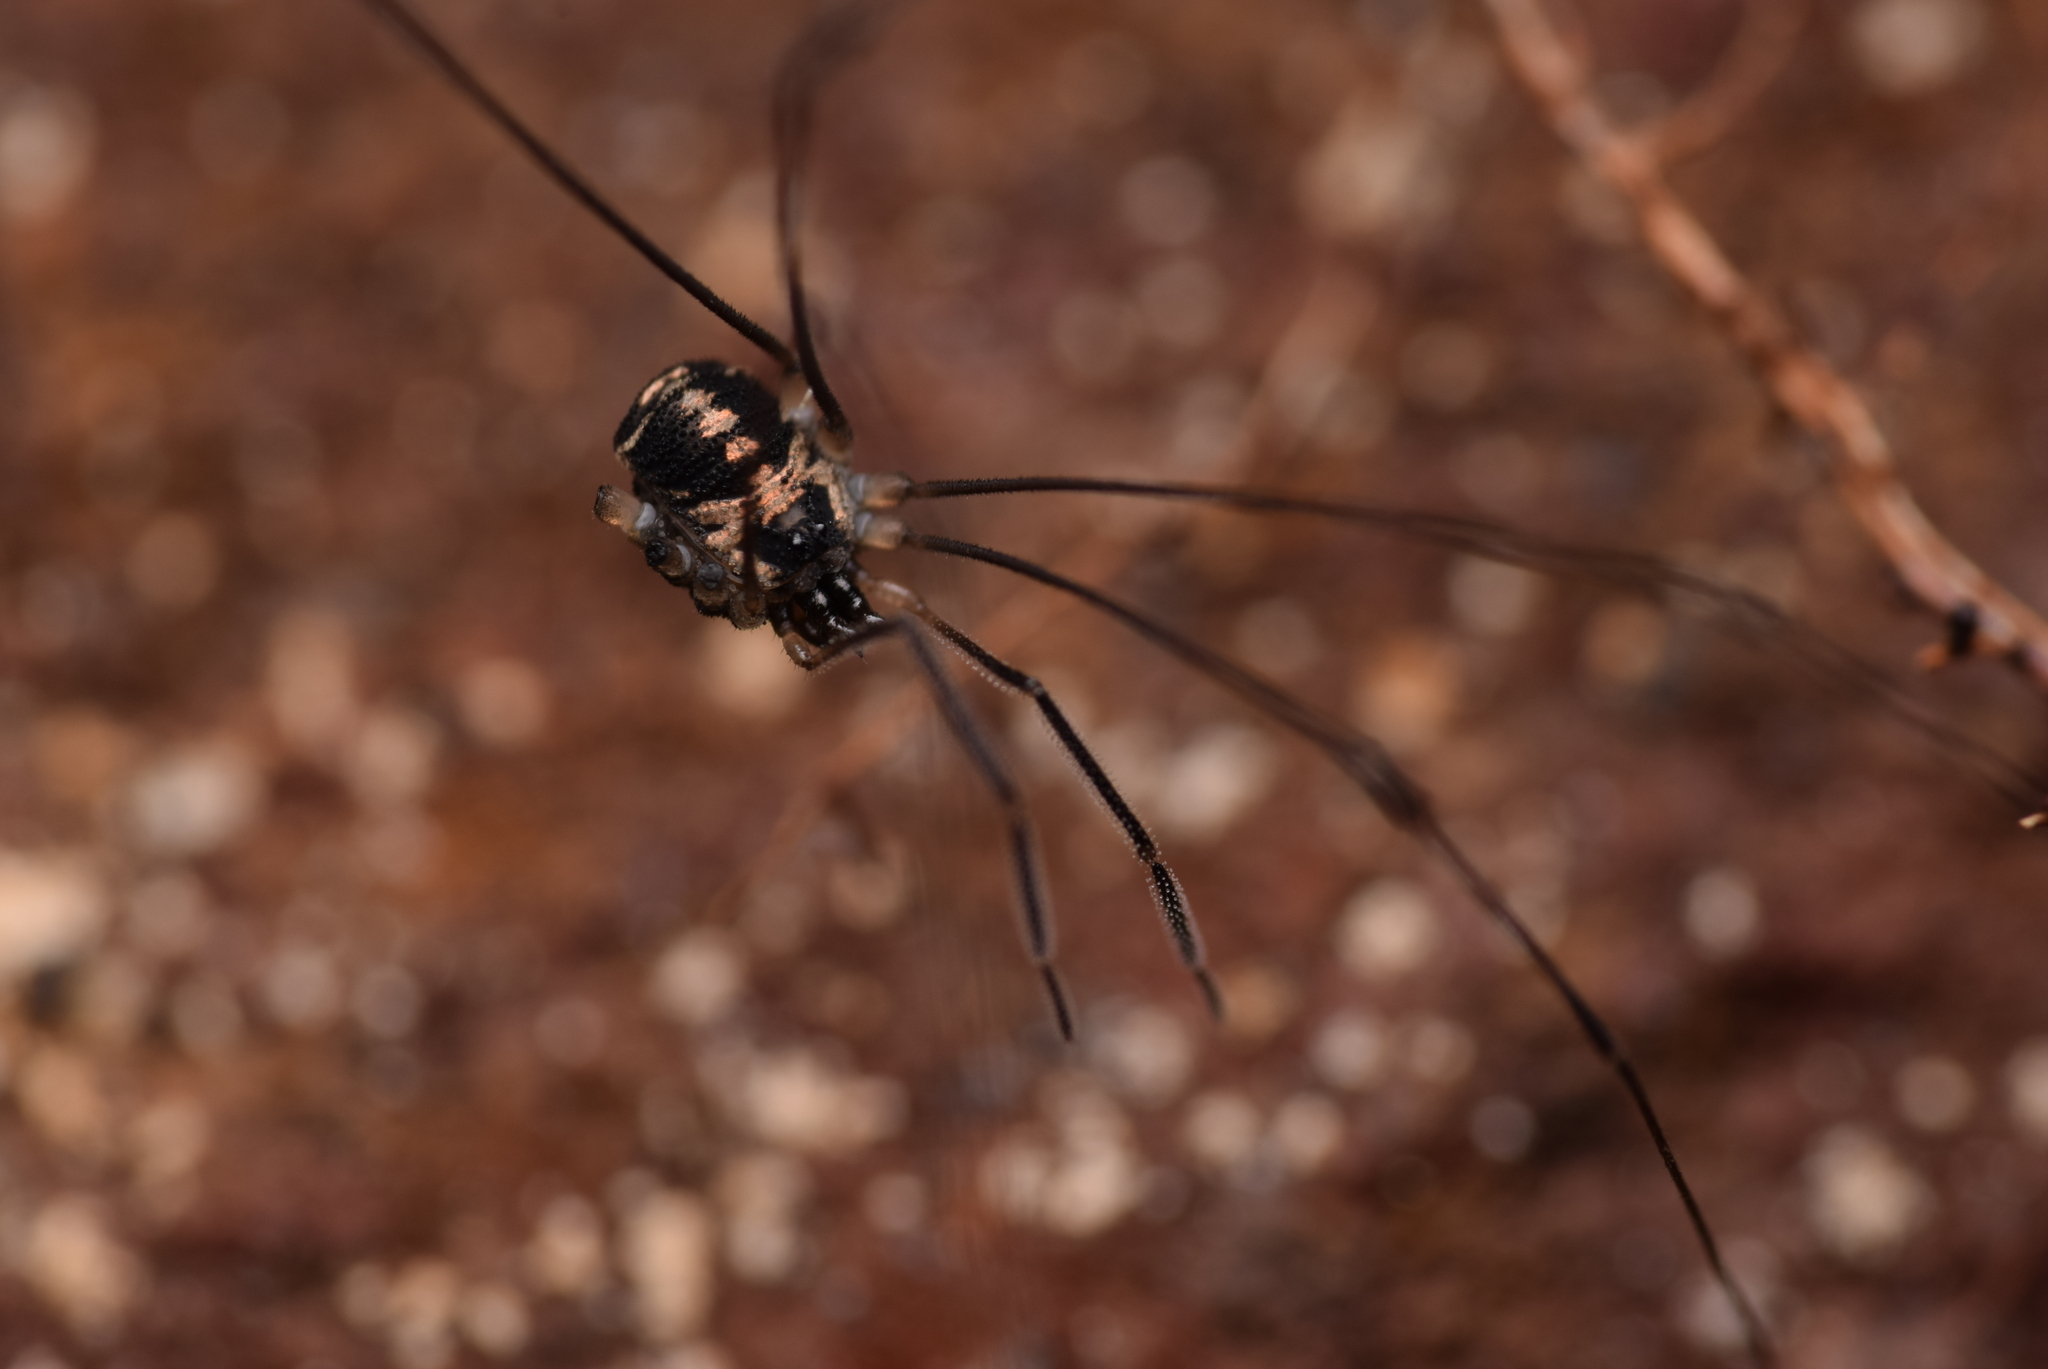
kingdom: Animalia
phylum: Arthropoda
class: Arachnida
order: Opiliones
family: Nemastomatidae
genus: Mitostoma
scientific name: Mitostoma pyrenaeum
